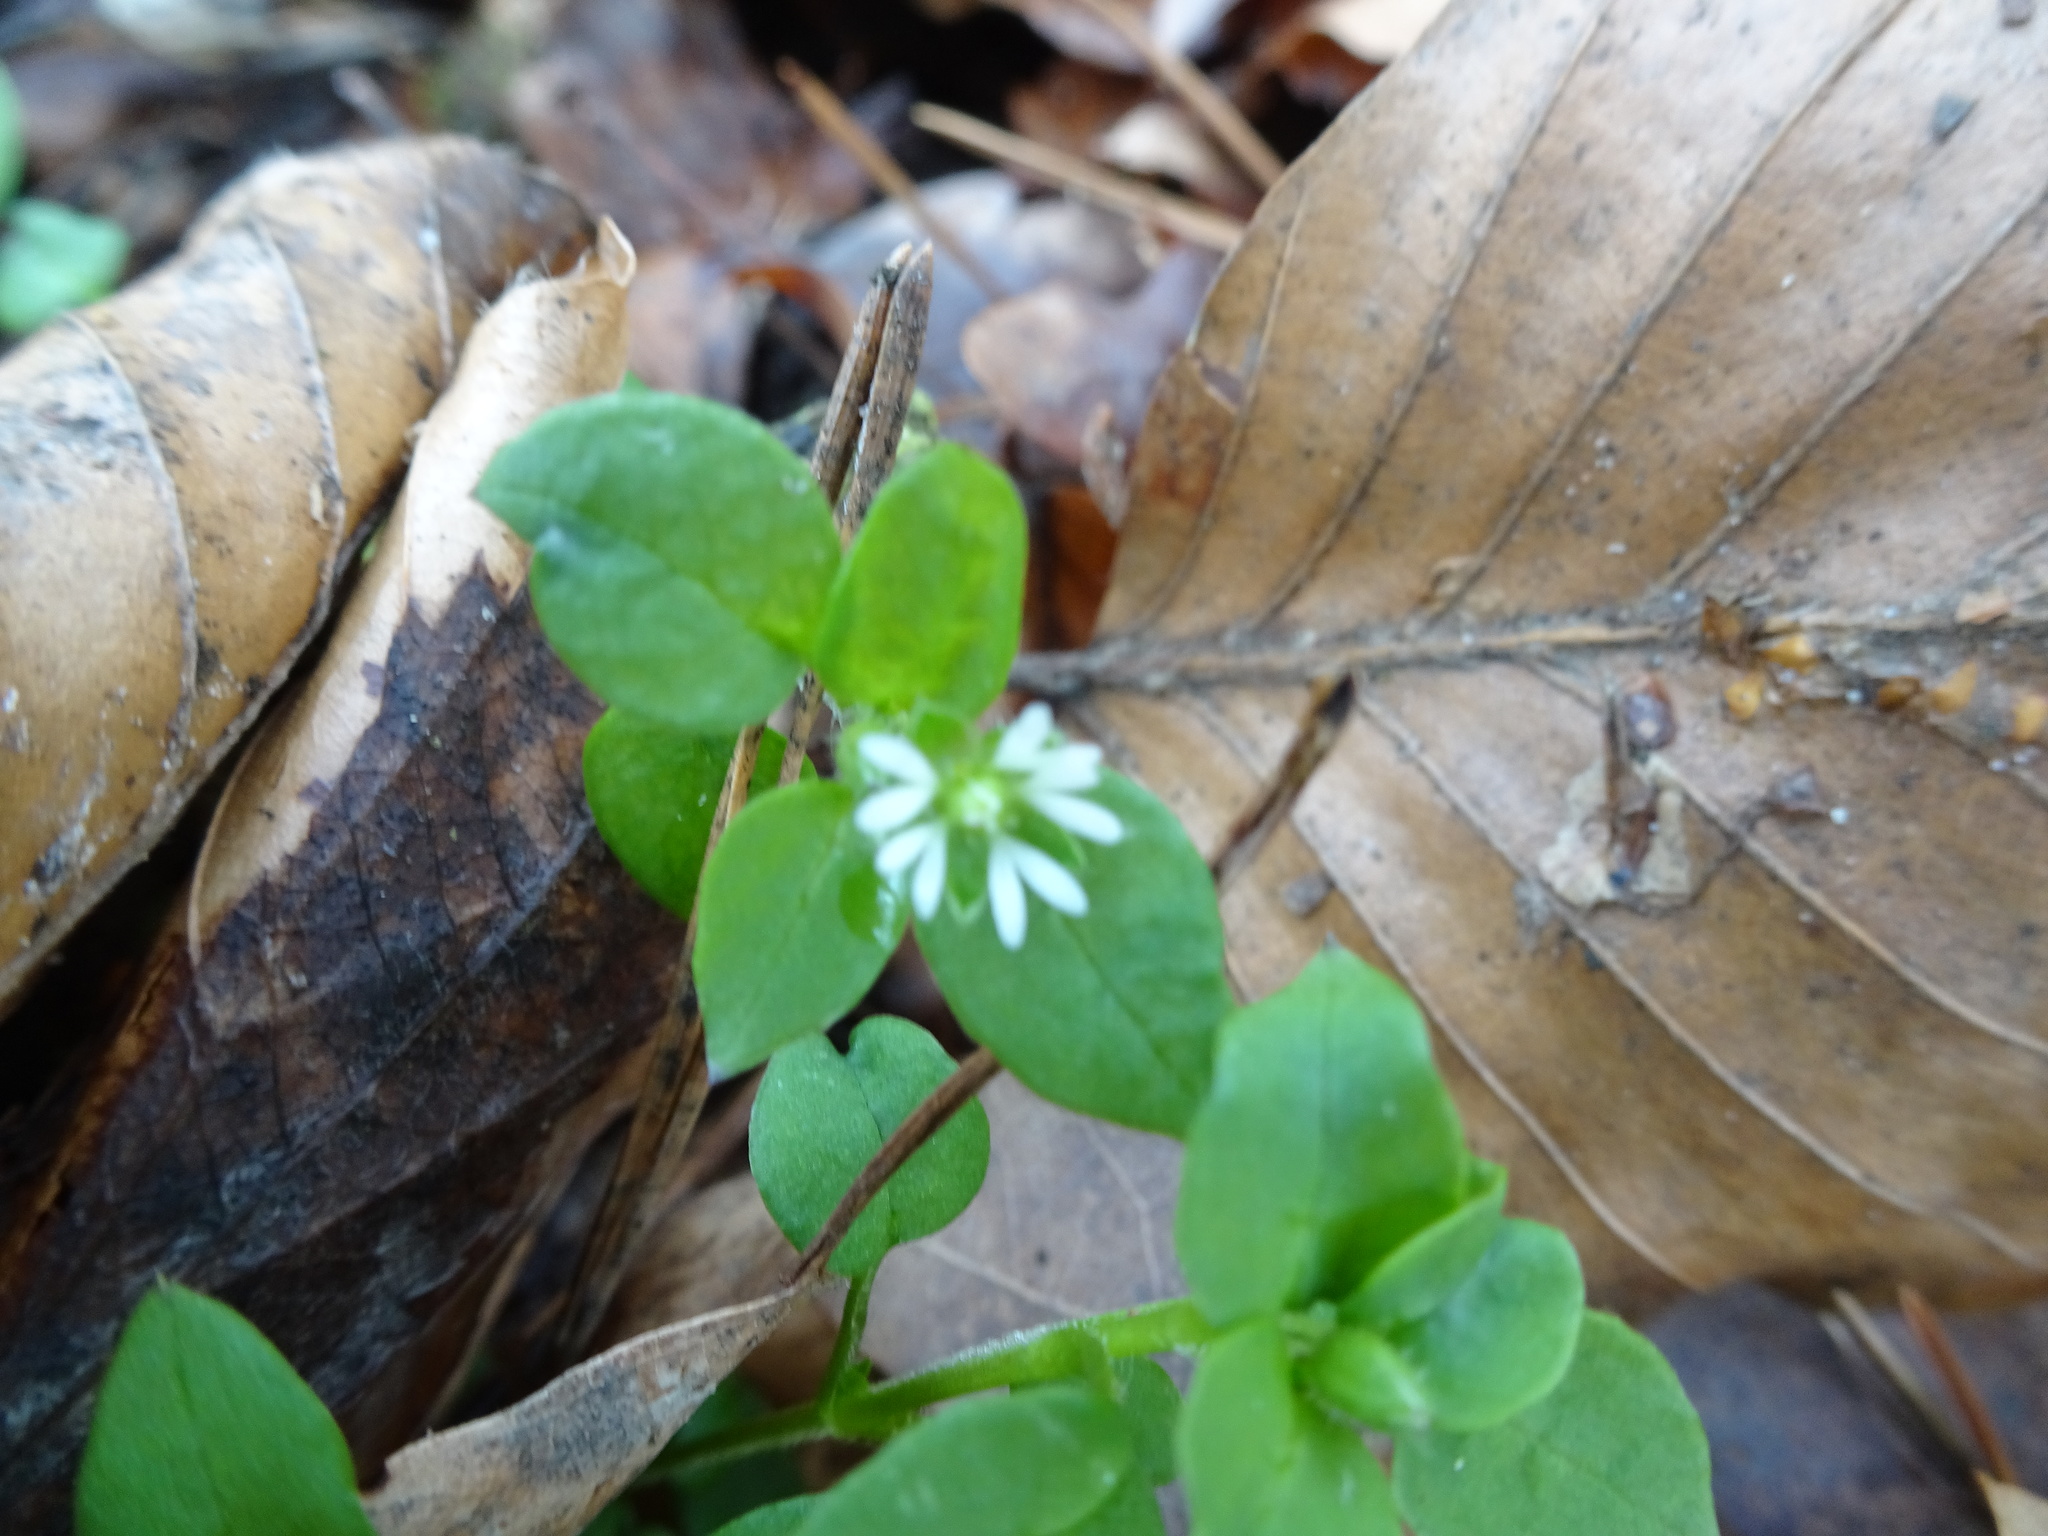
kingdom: Plantae
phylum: Tracheophyta
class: Magnoliopsida
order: Caryophyllales
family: Caryophyllaceae
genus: Stellaria
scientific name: Stellaria media
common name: Common chickweed
